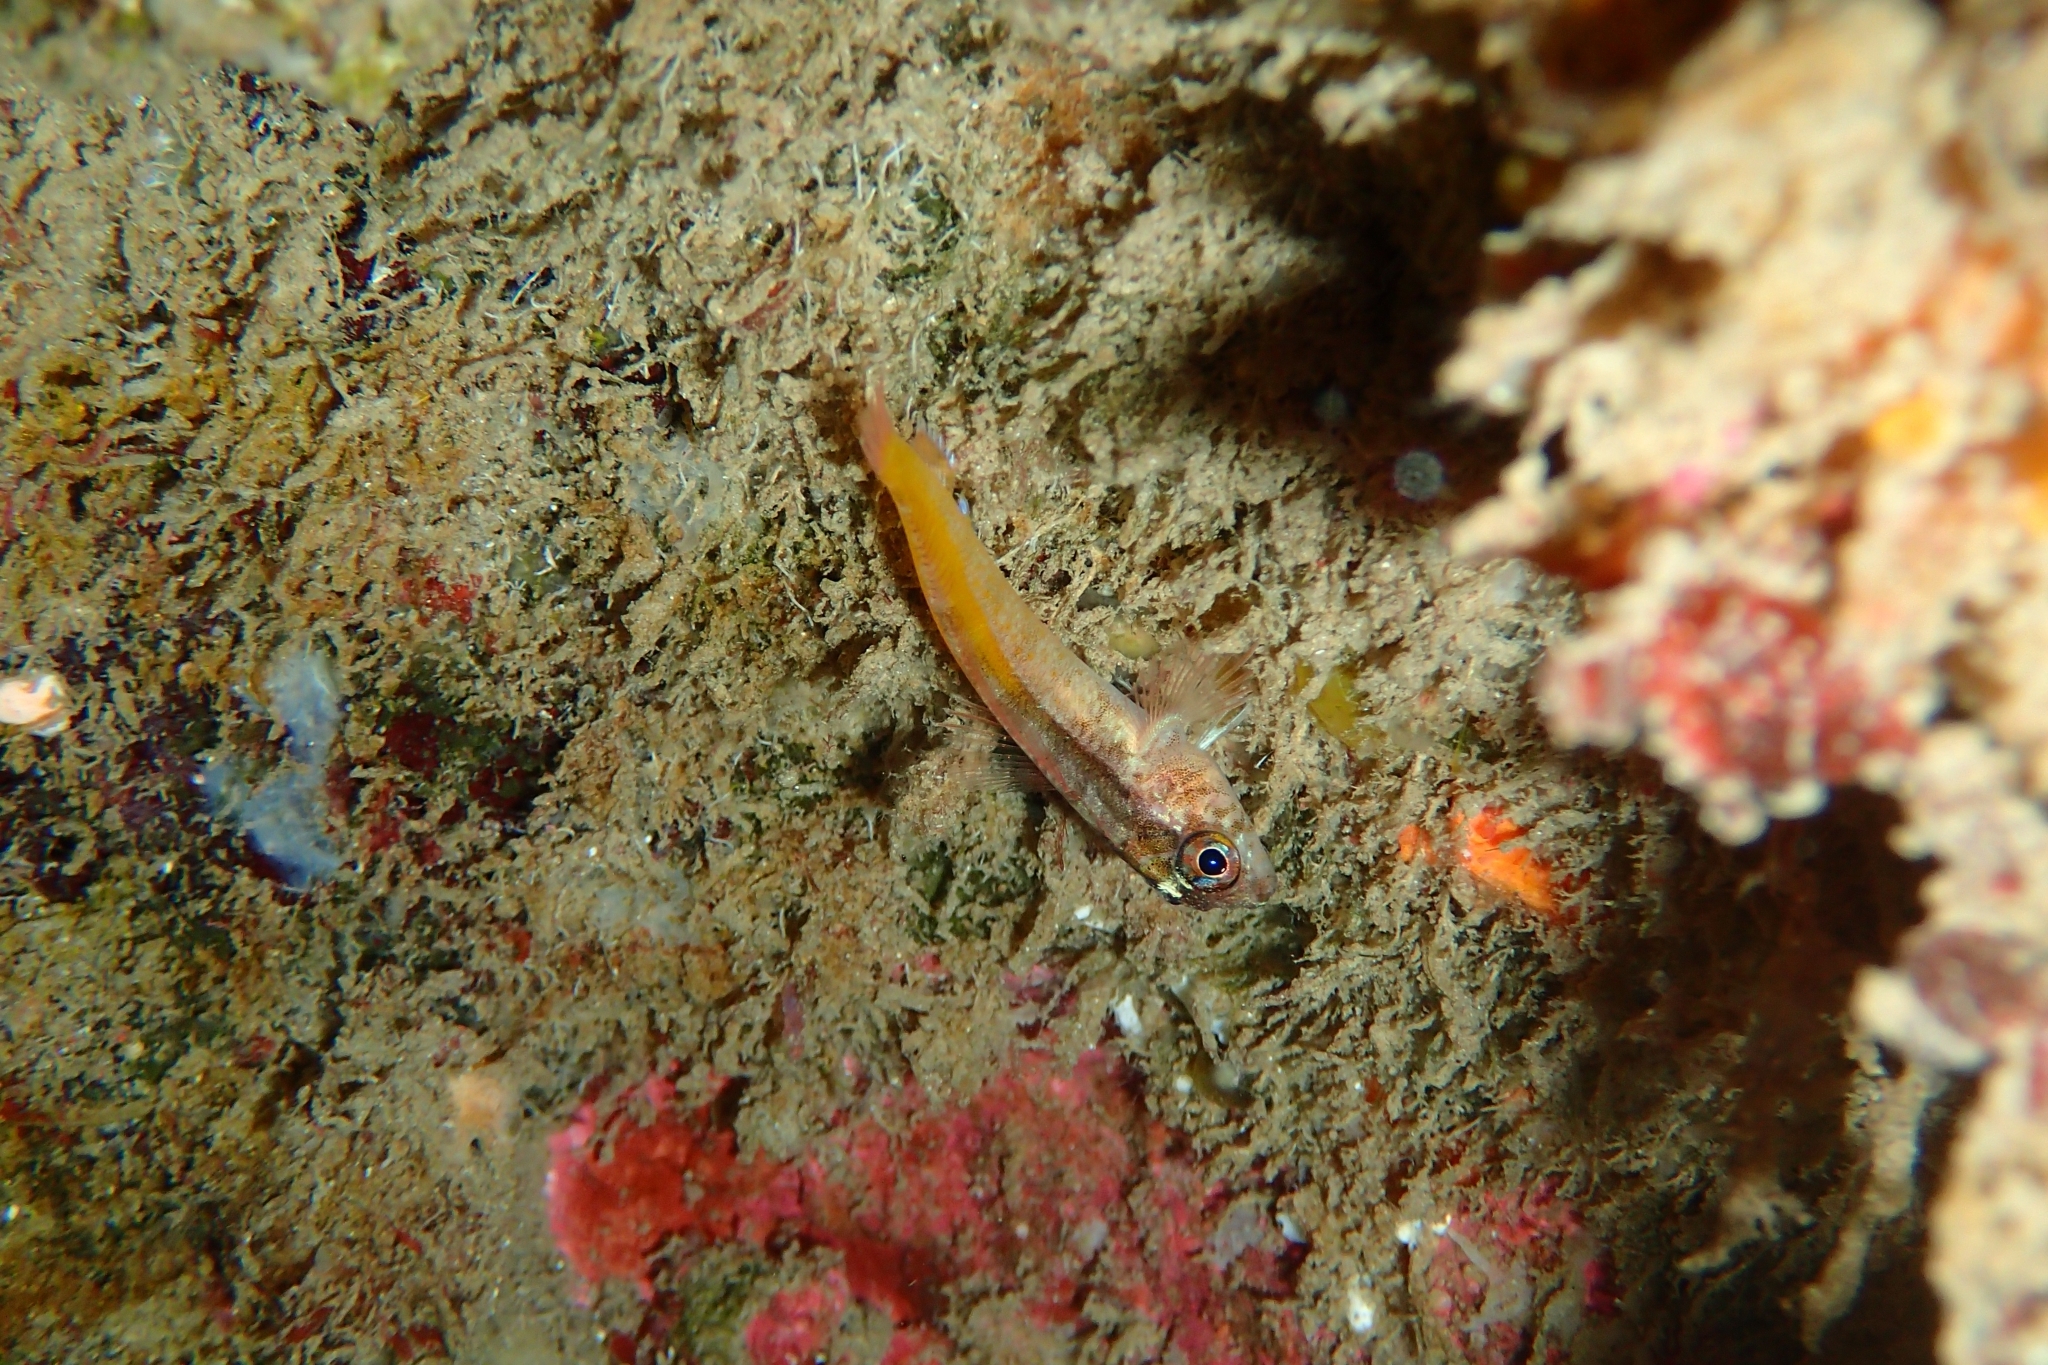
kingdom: Animalia
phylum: Chordata
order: Perciformes
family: Tripterygiidae
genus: Forsterygion
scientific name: Forsterygion flavonigrum
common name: Yellow-and-black triplefin
